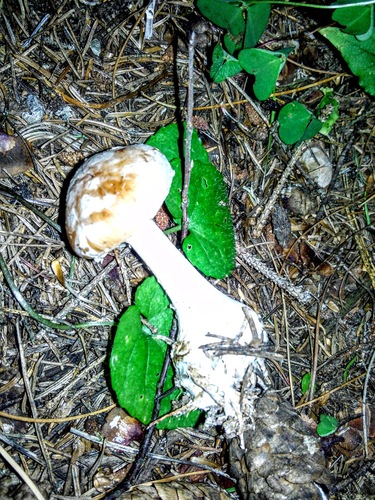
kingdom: Fungi
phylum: Basidiomycota
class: Agaricomycetes
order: Agaricales
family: Tricholomataceae
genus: Leucocortinarius
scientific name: Leucocortinarius bulbiger
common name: White webcap
